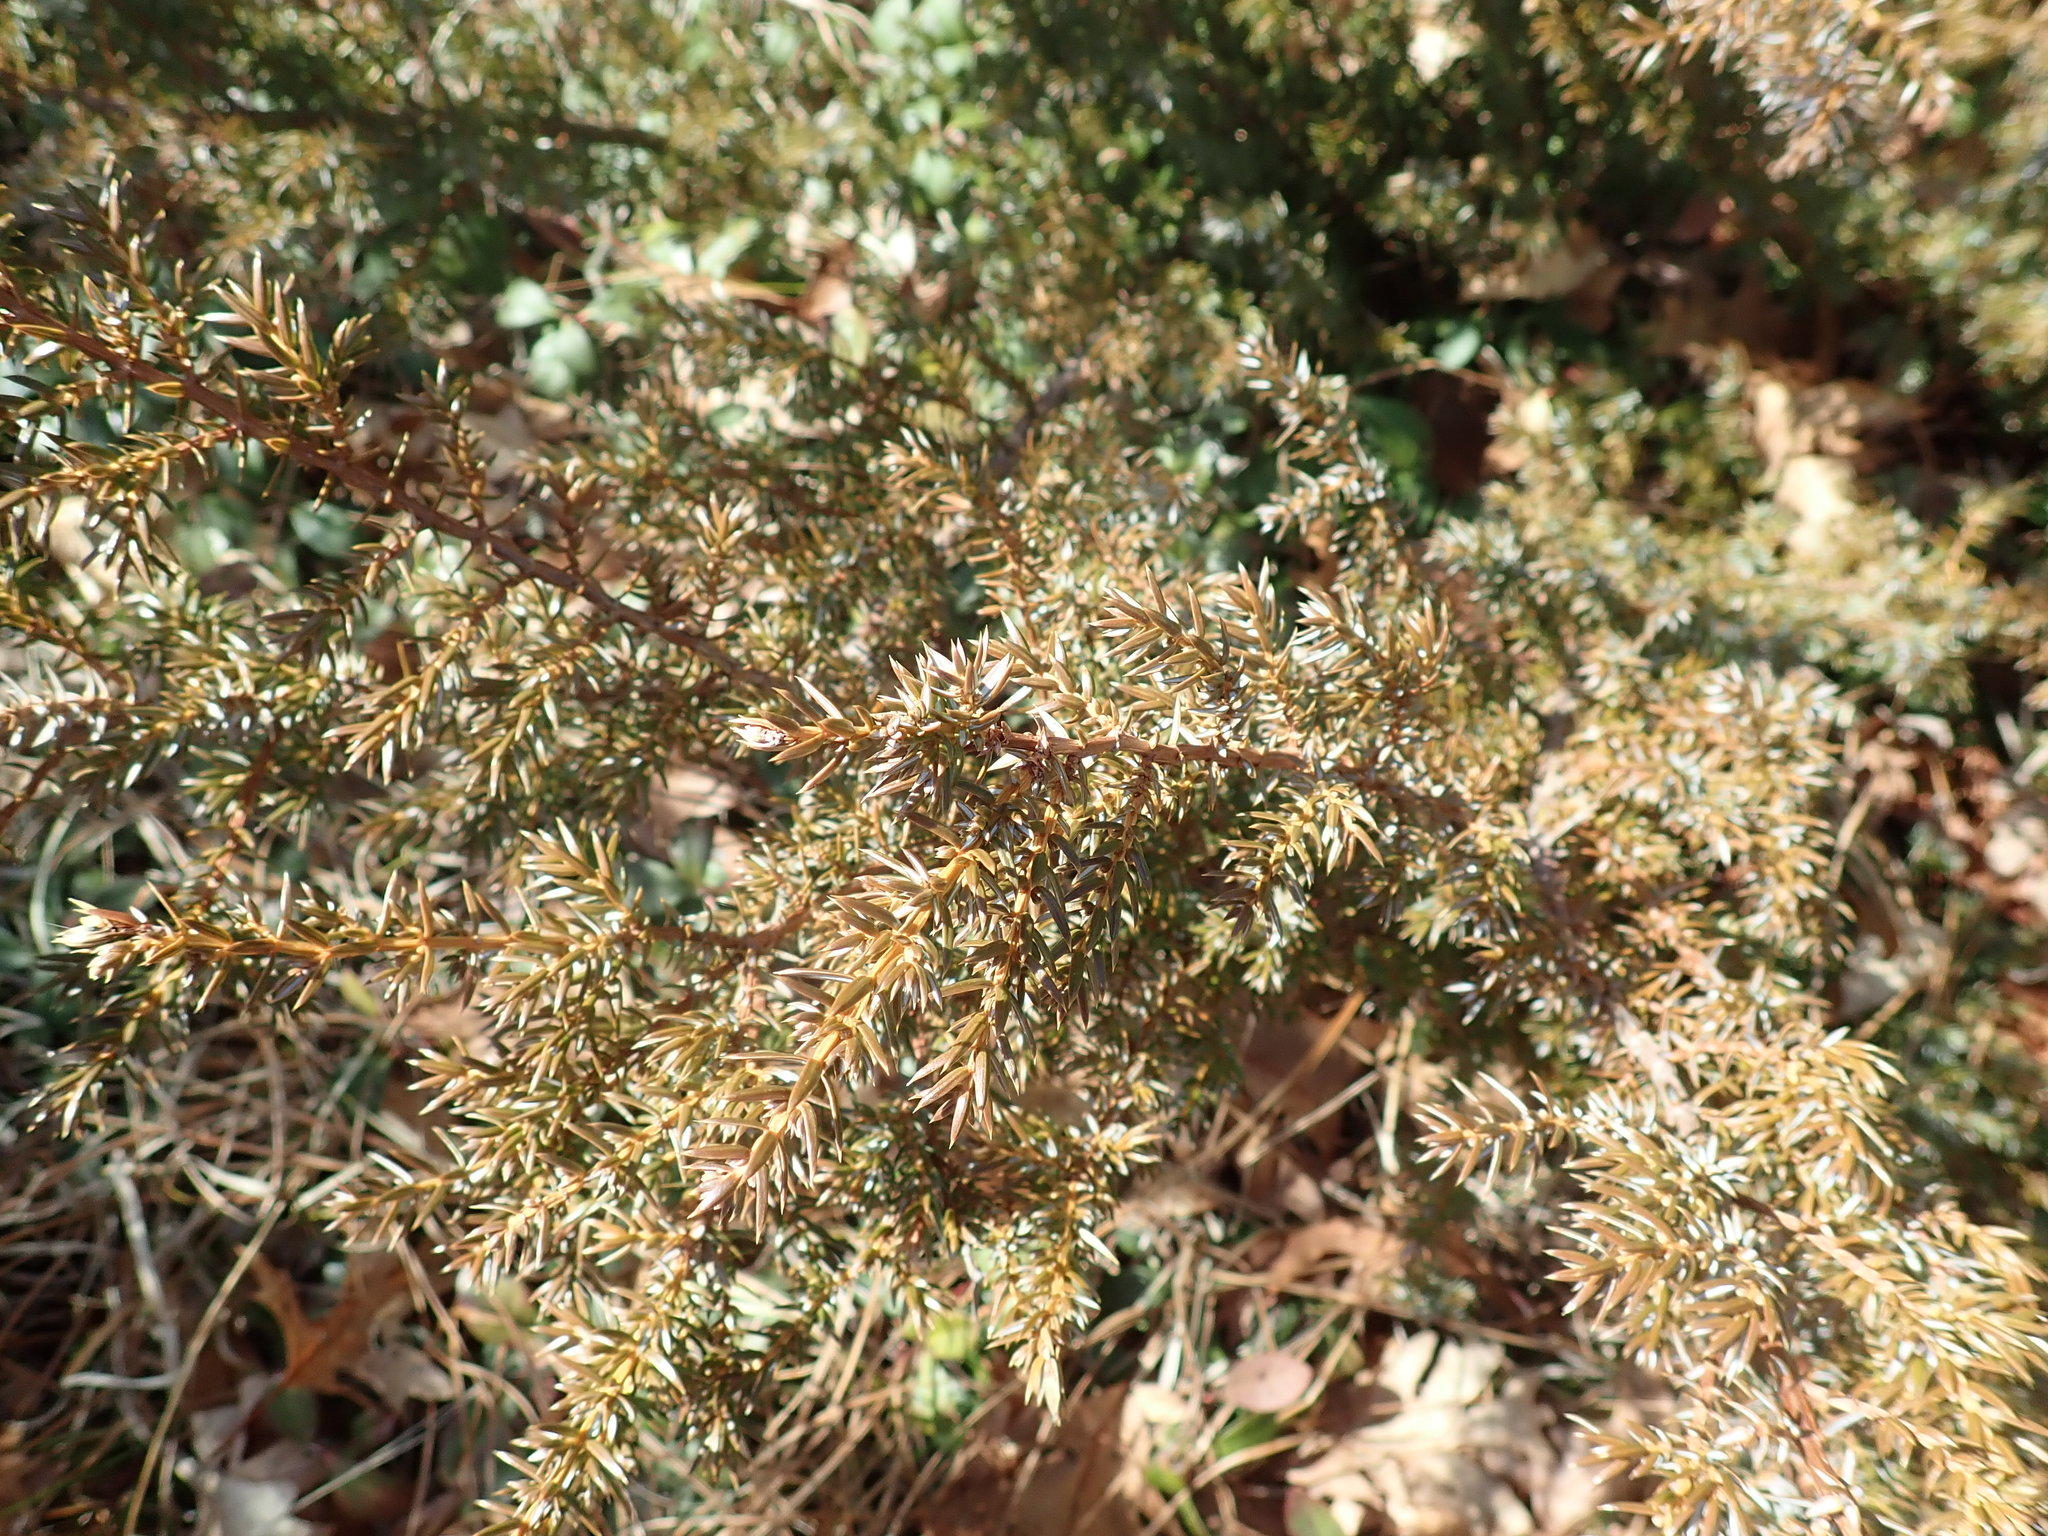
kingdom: Plantae
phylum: Tracheophyta
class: Pinopsida
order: Pinales
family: Cupressaceae
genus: Juniperus
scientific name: Juniperus communis
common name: Common juniper
